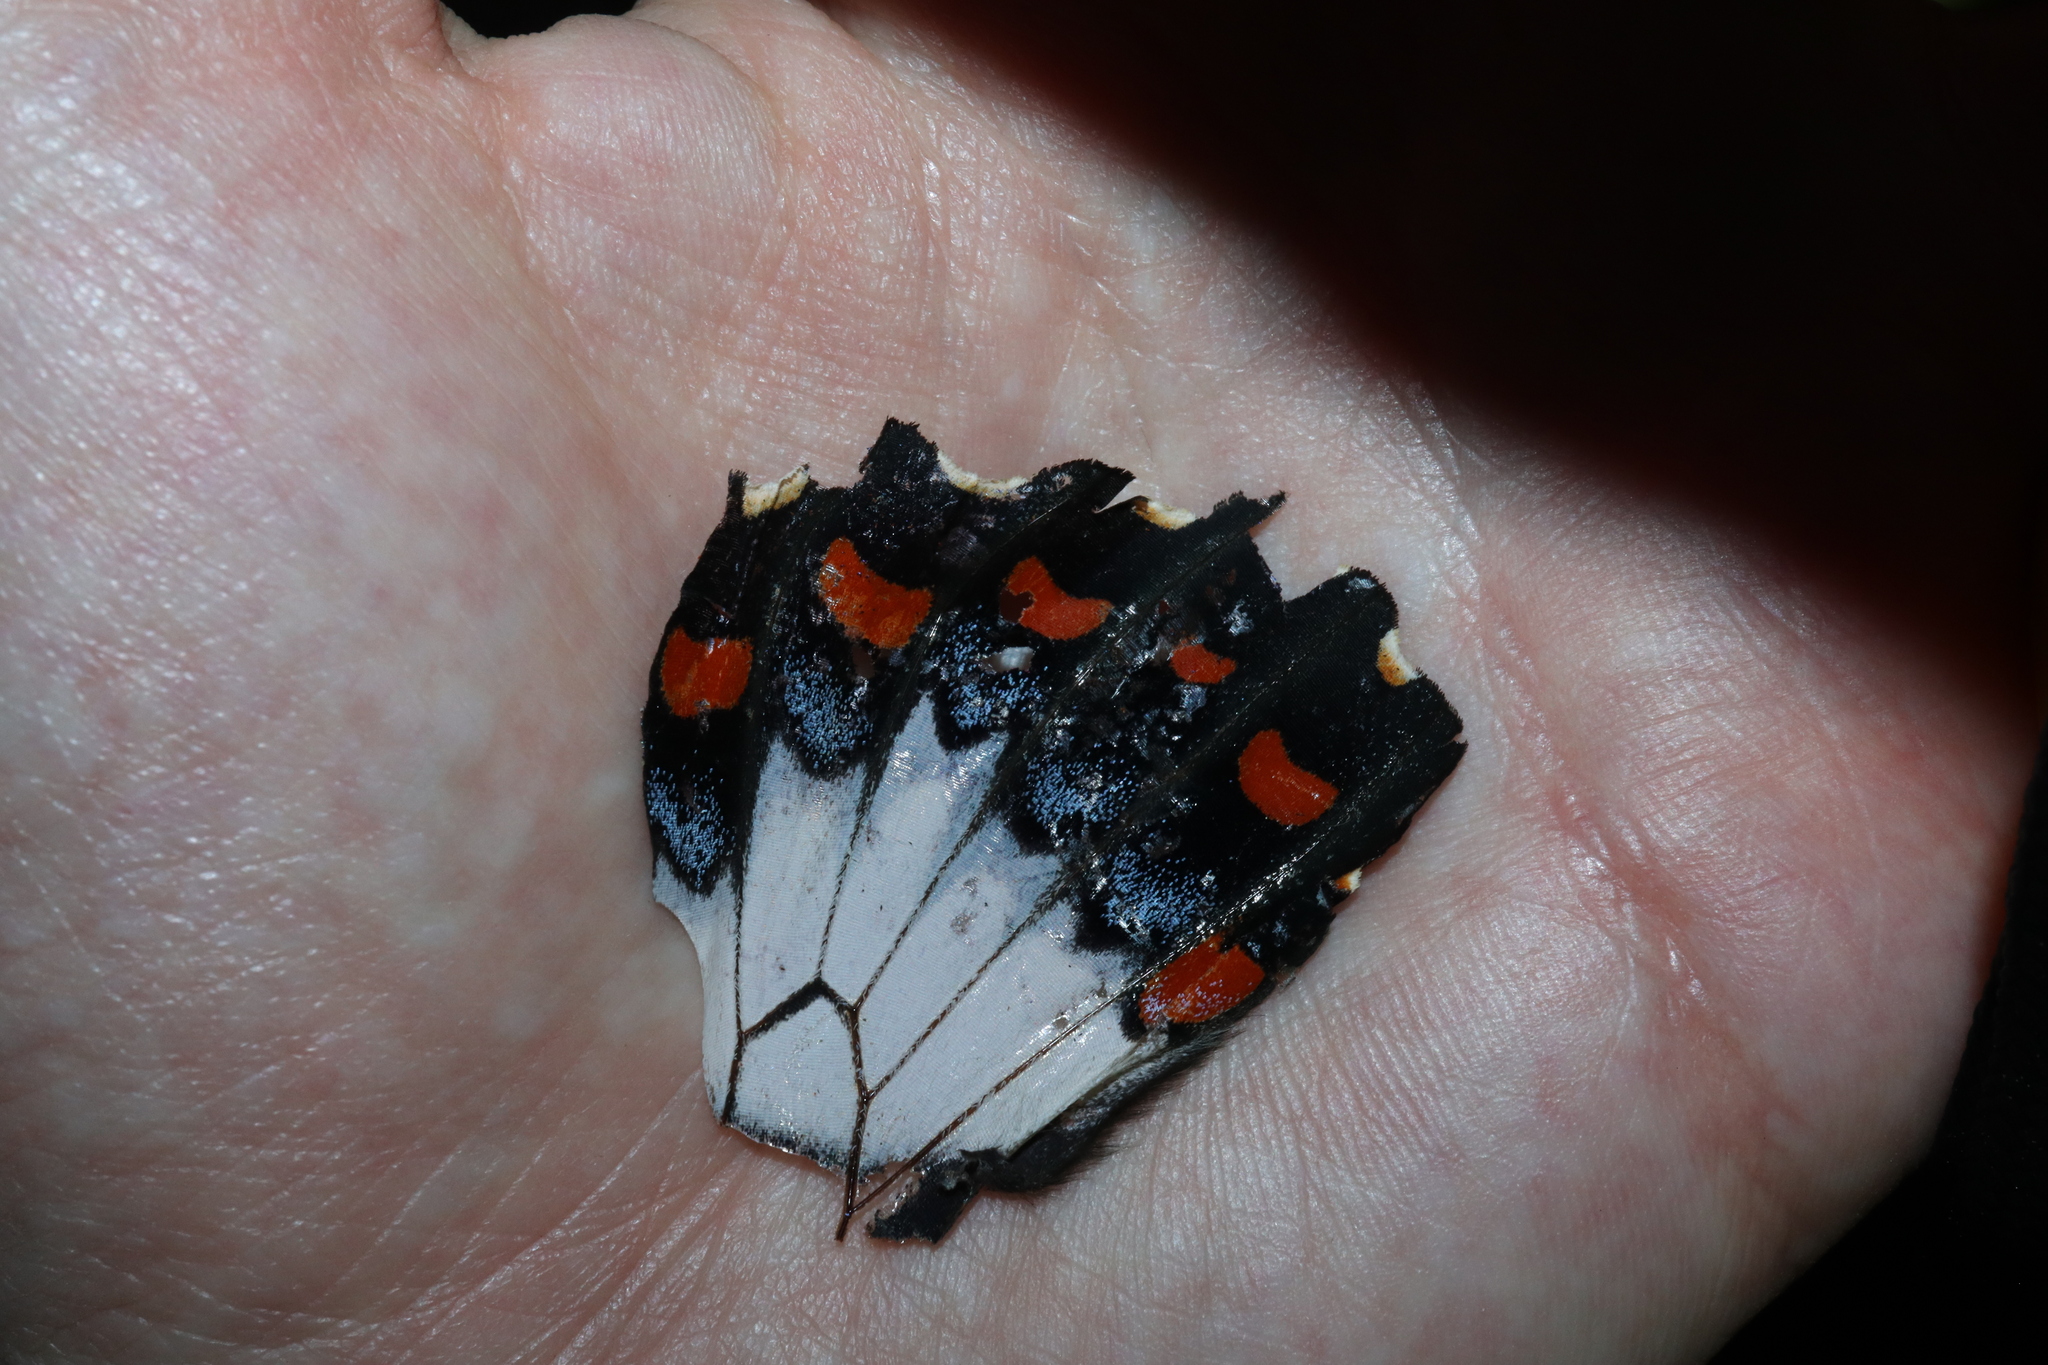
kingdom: Animalia
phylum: Arthropoda
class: Insecta
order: Lepidoptera
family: Papilionidae
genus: Papilio
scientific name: Papilio aegeus
